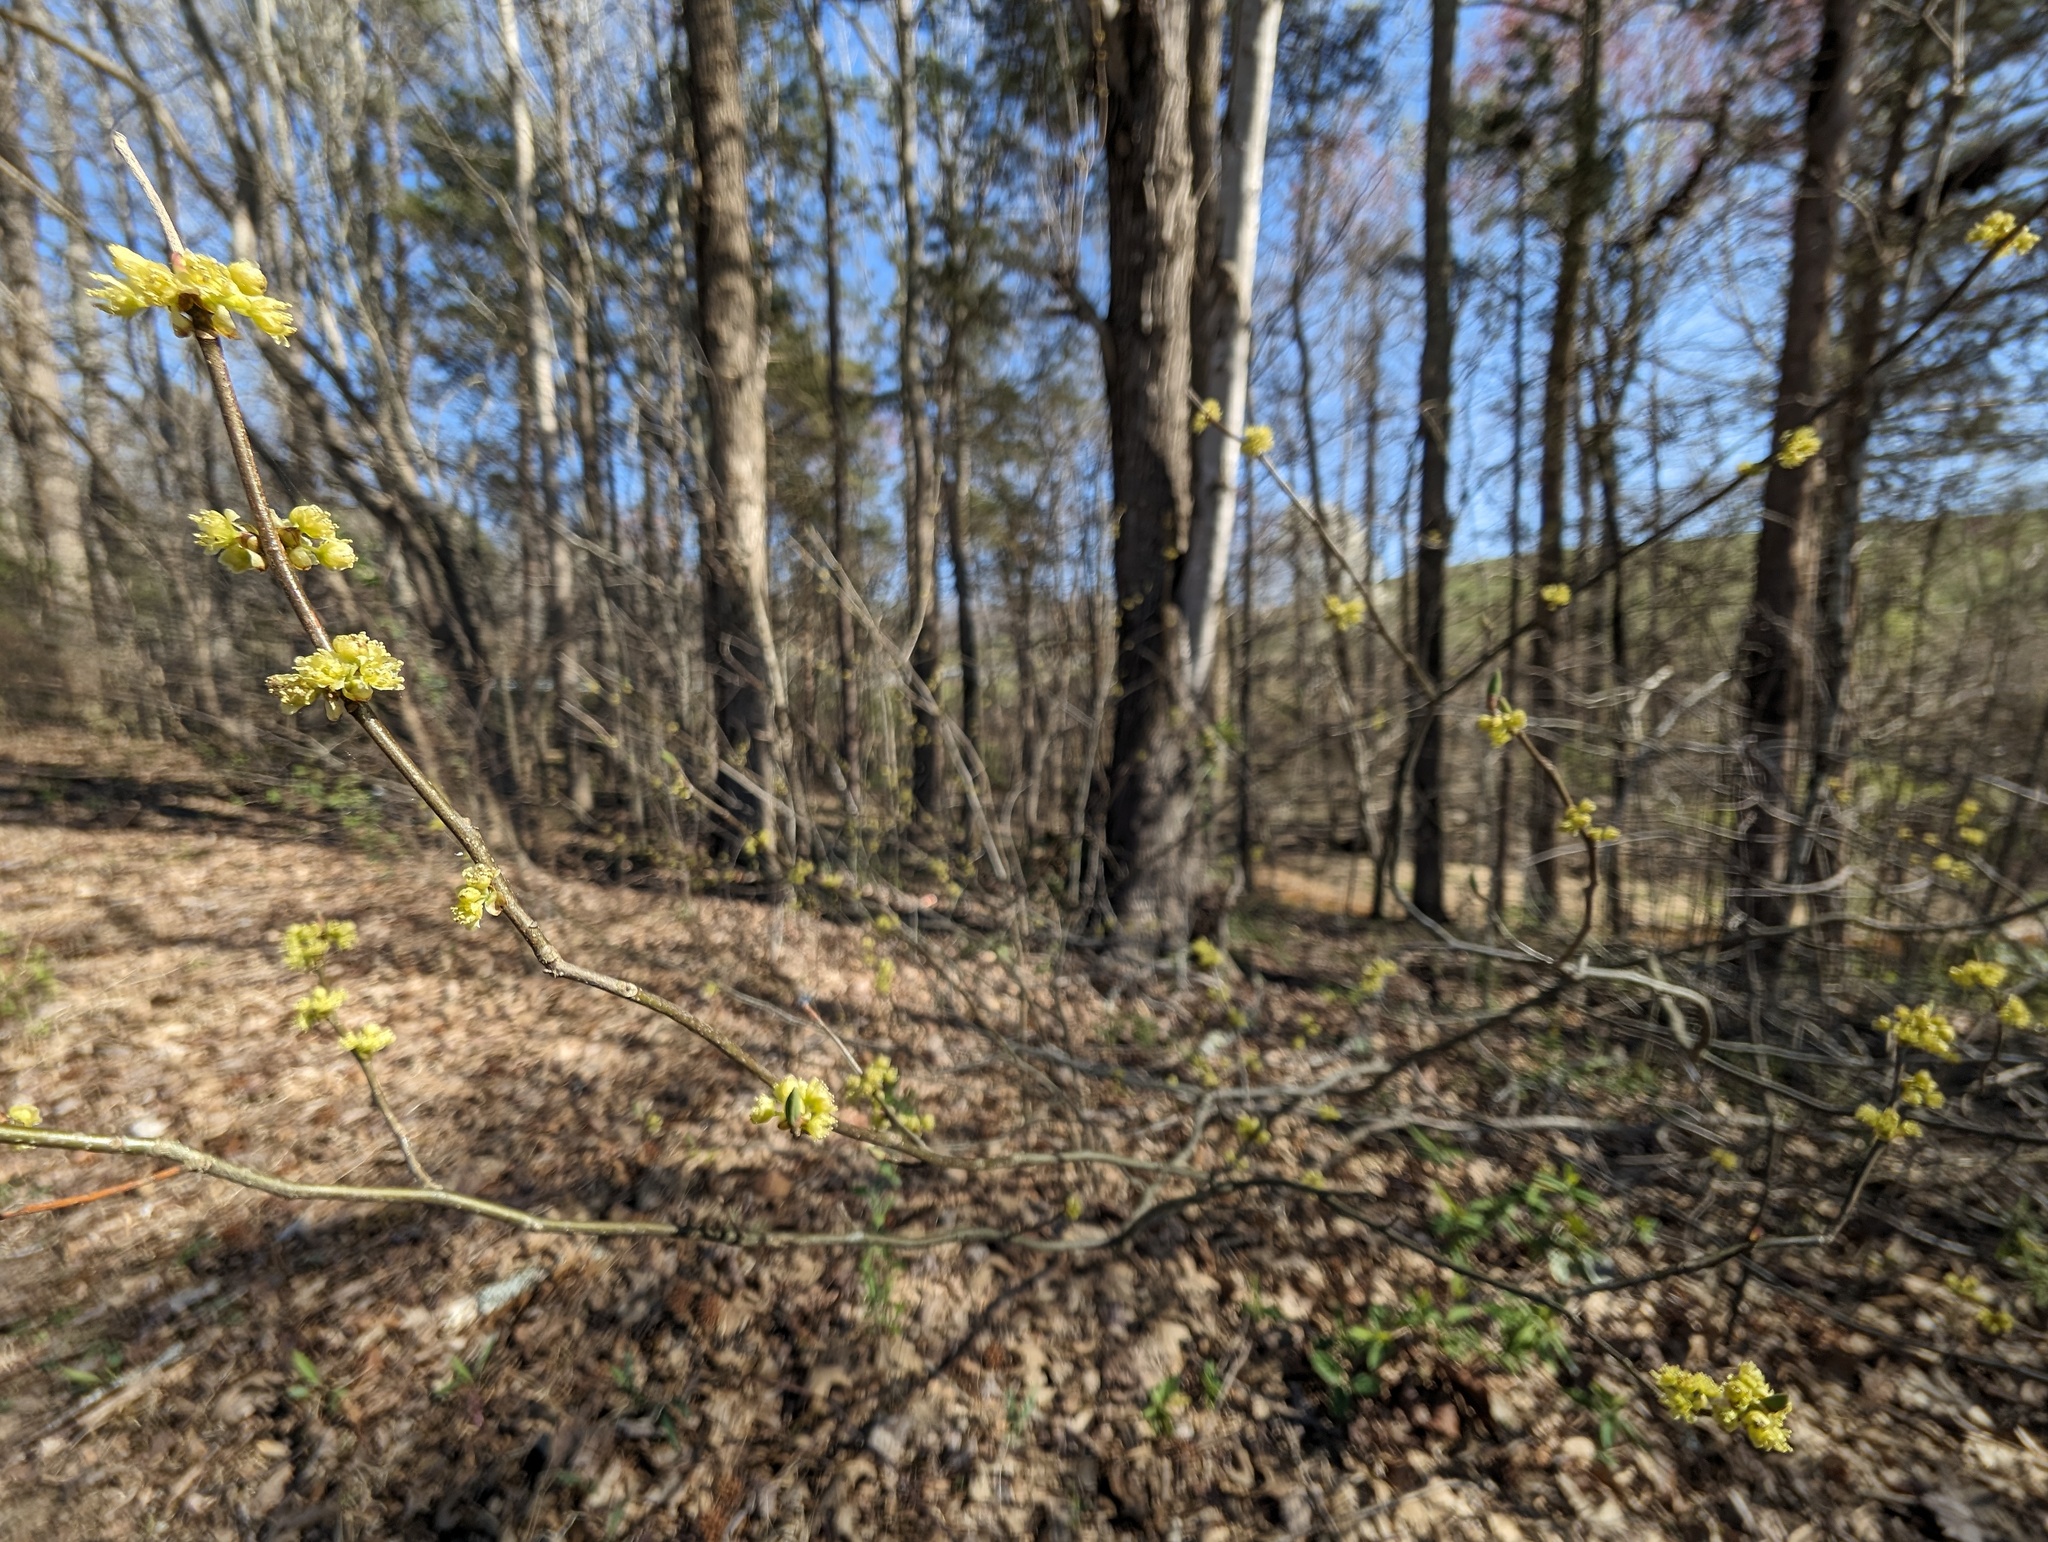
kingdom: Plantae
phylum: Tracheophyta
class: Magnoliopsida
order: Laurales
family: Lauraceae
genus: Lindera
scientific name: Lindera benzoin
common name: Spicebush
